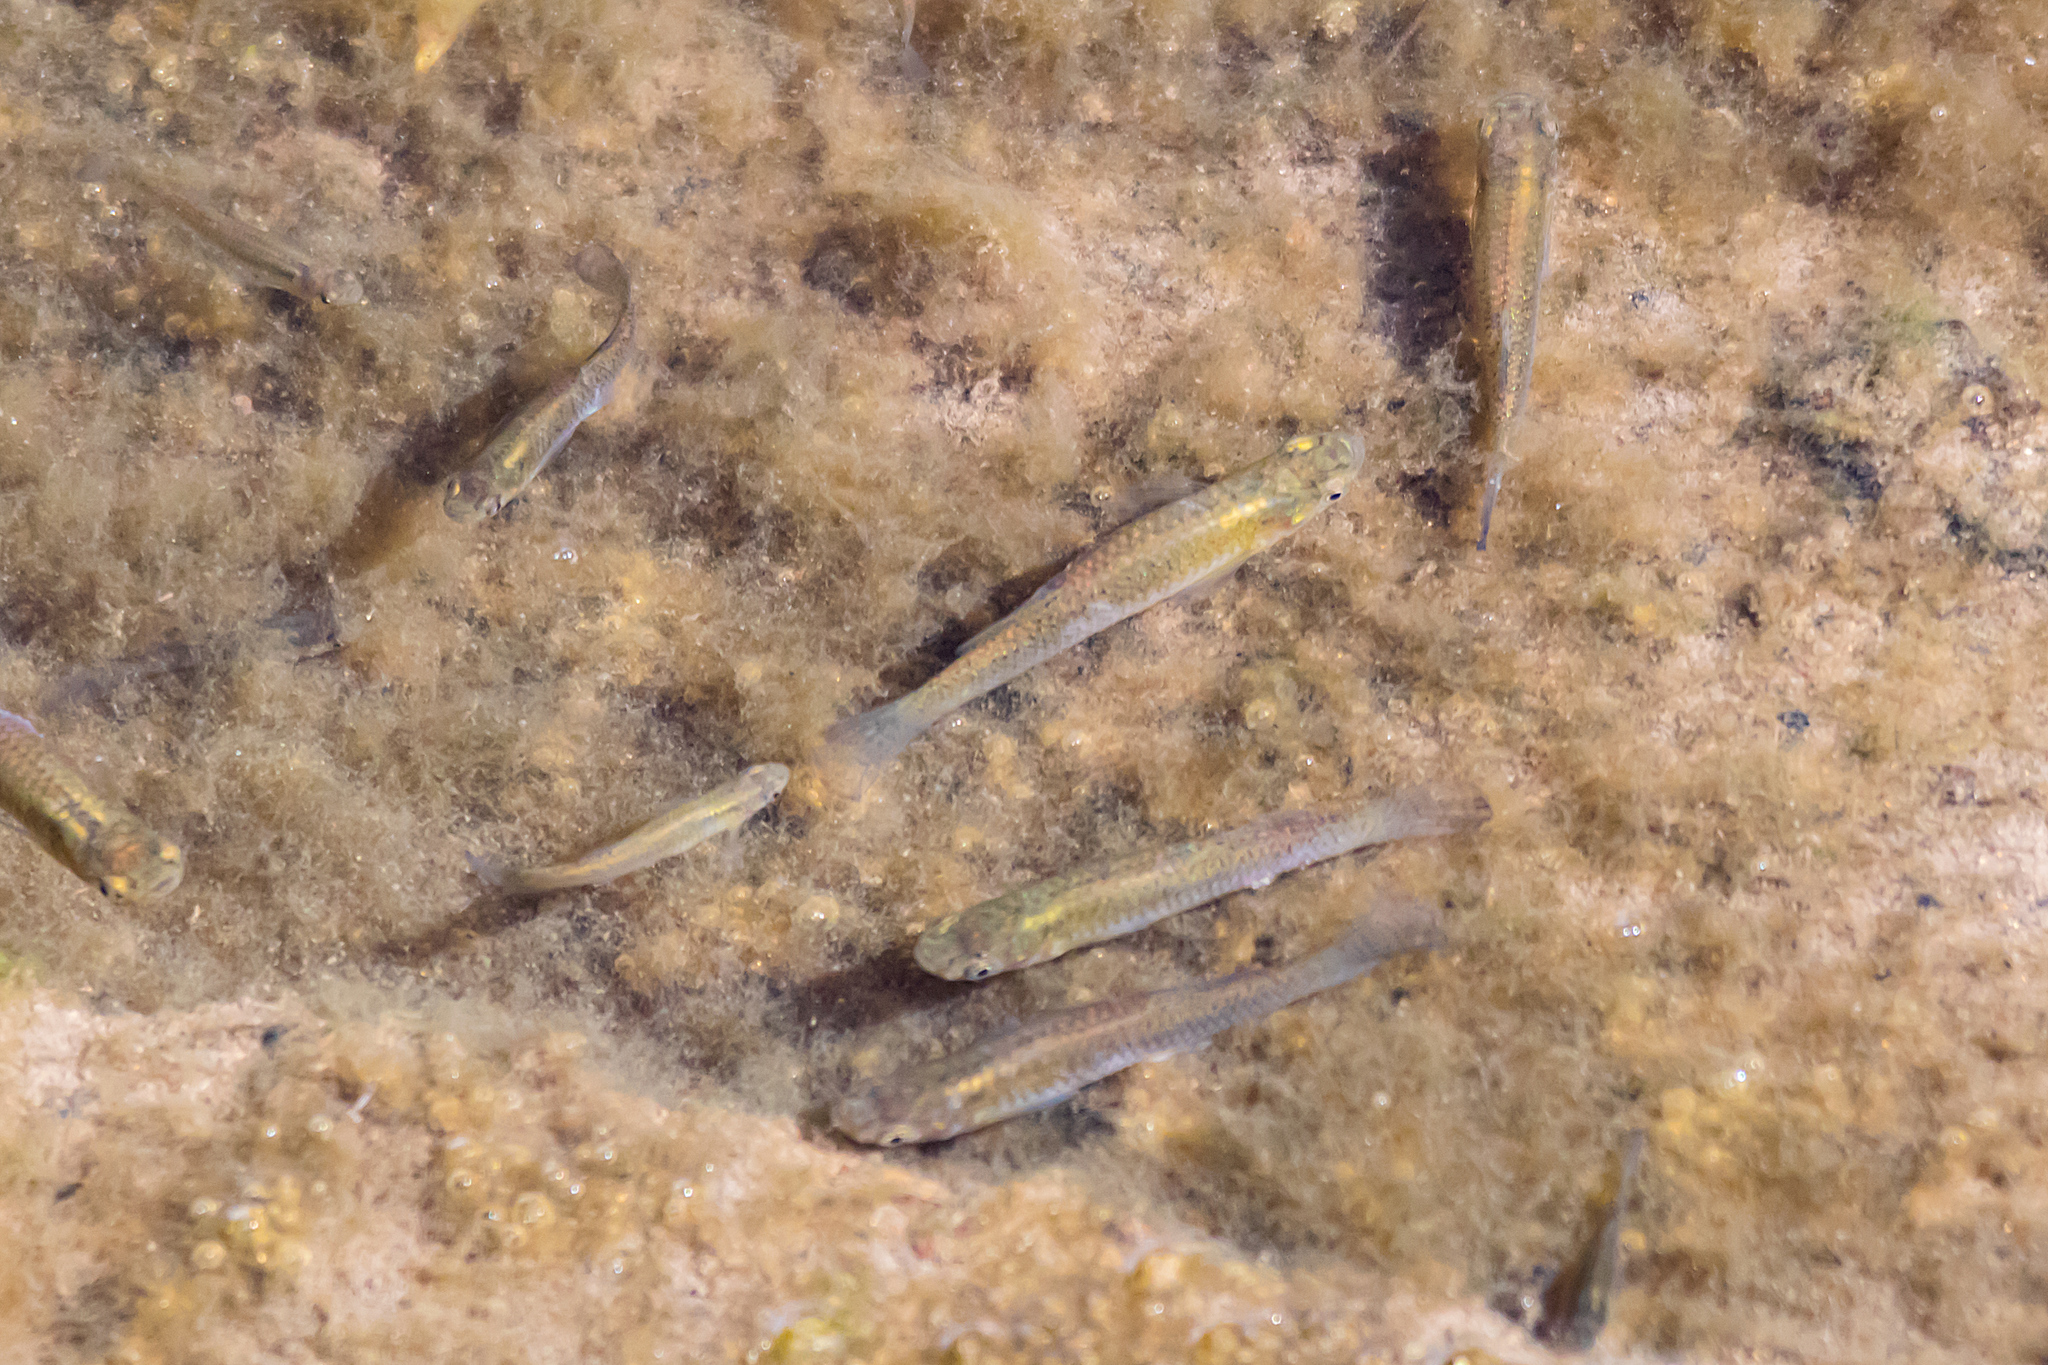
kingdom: Animalia
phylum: Chordata
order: Cyprinodontiformes
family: Poeciliidae
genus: Gambusia
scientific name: Gambusia holbrooki
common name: Eastern mosquitofish
